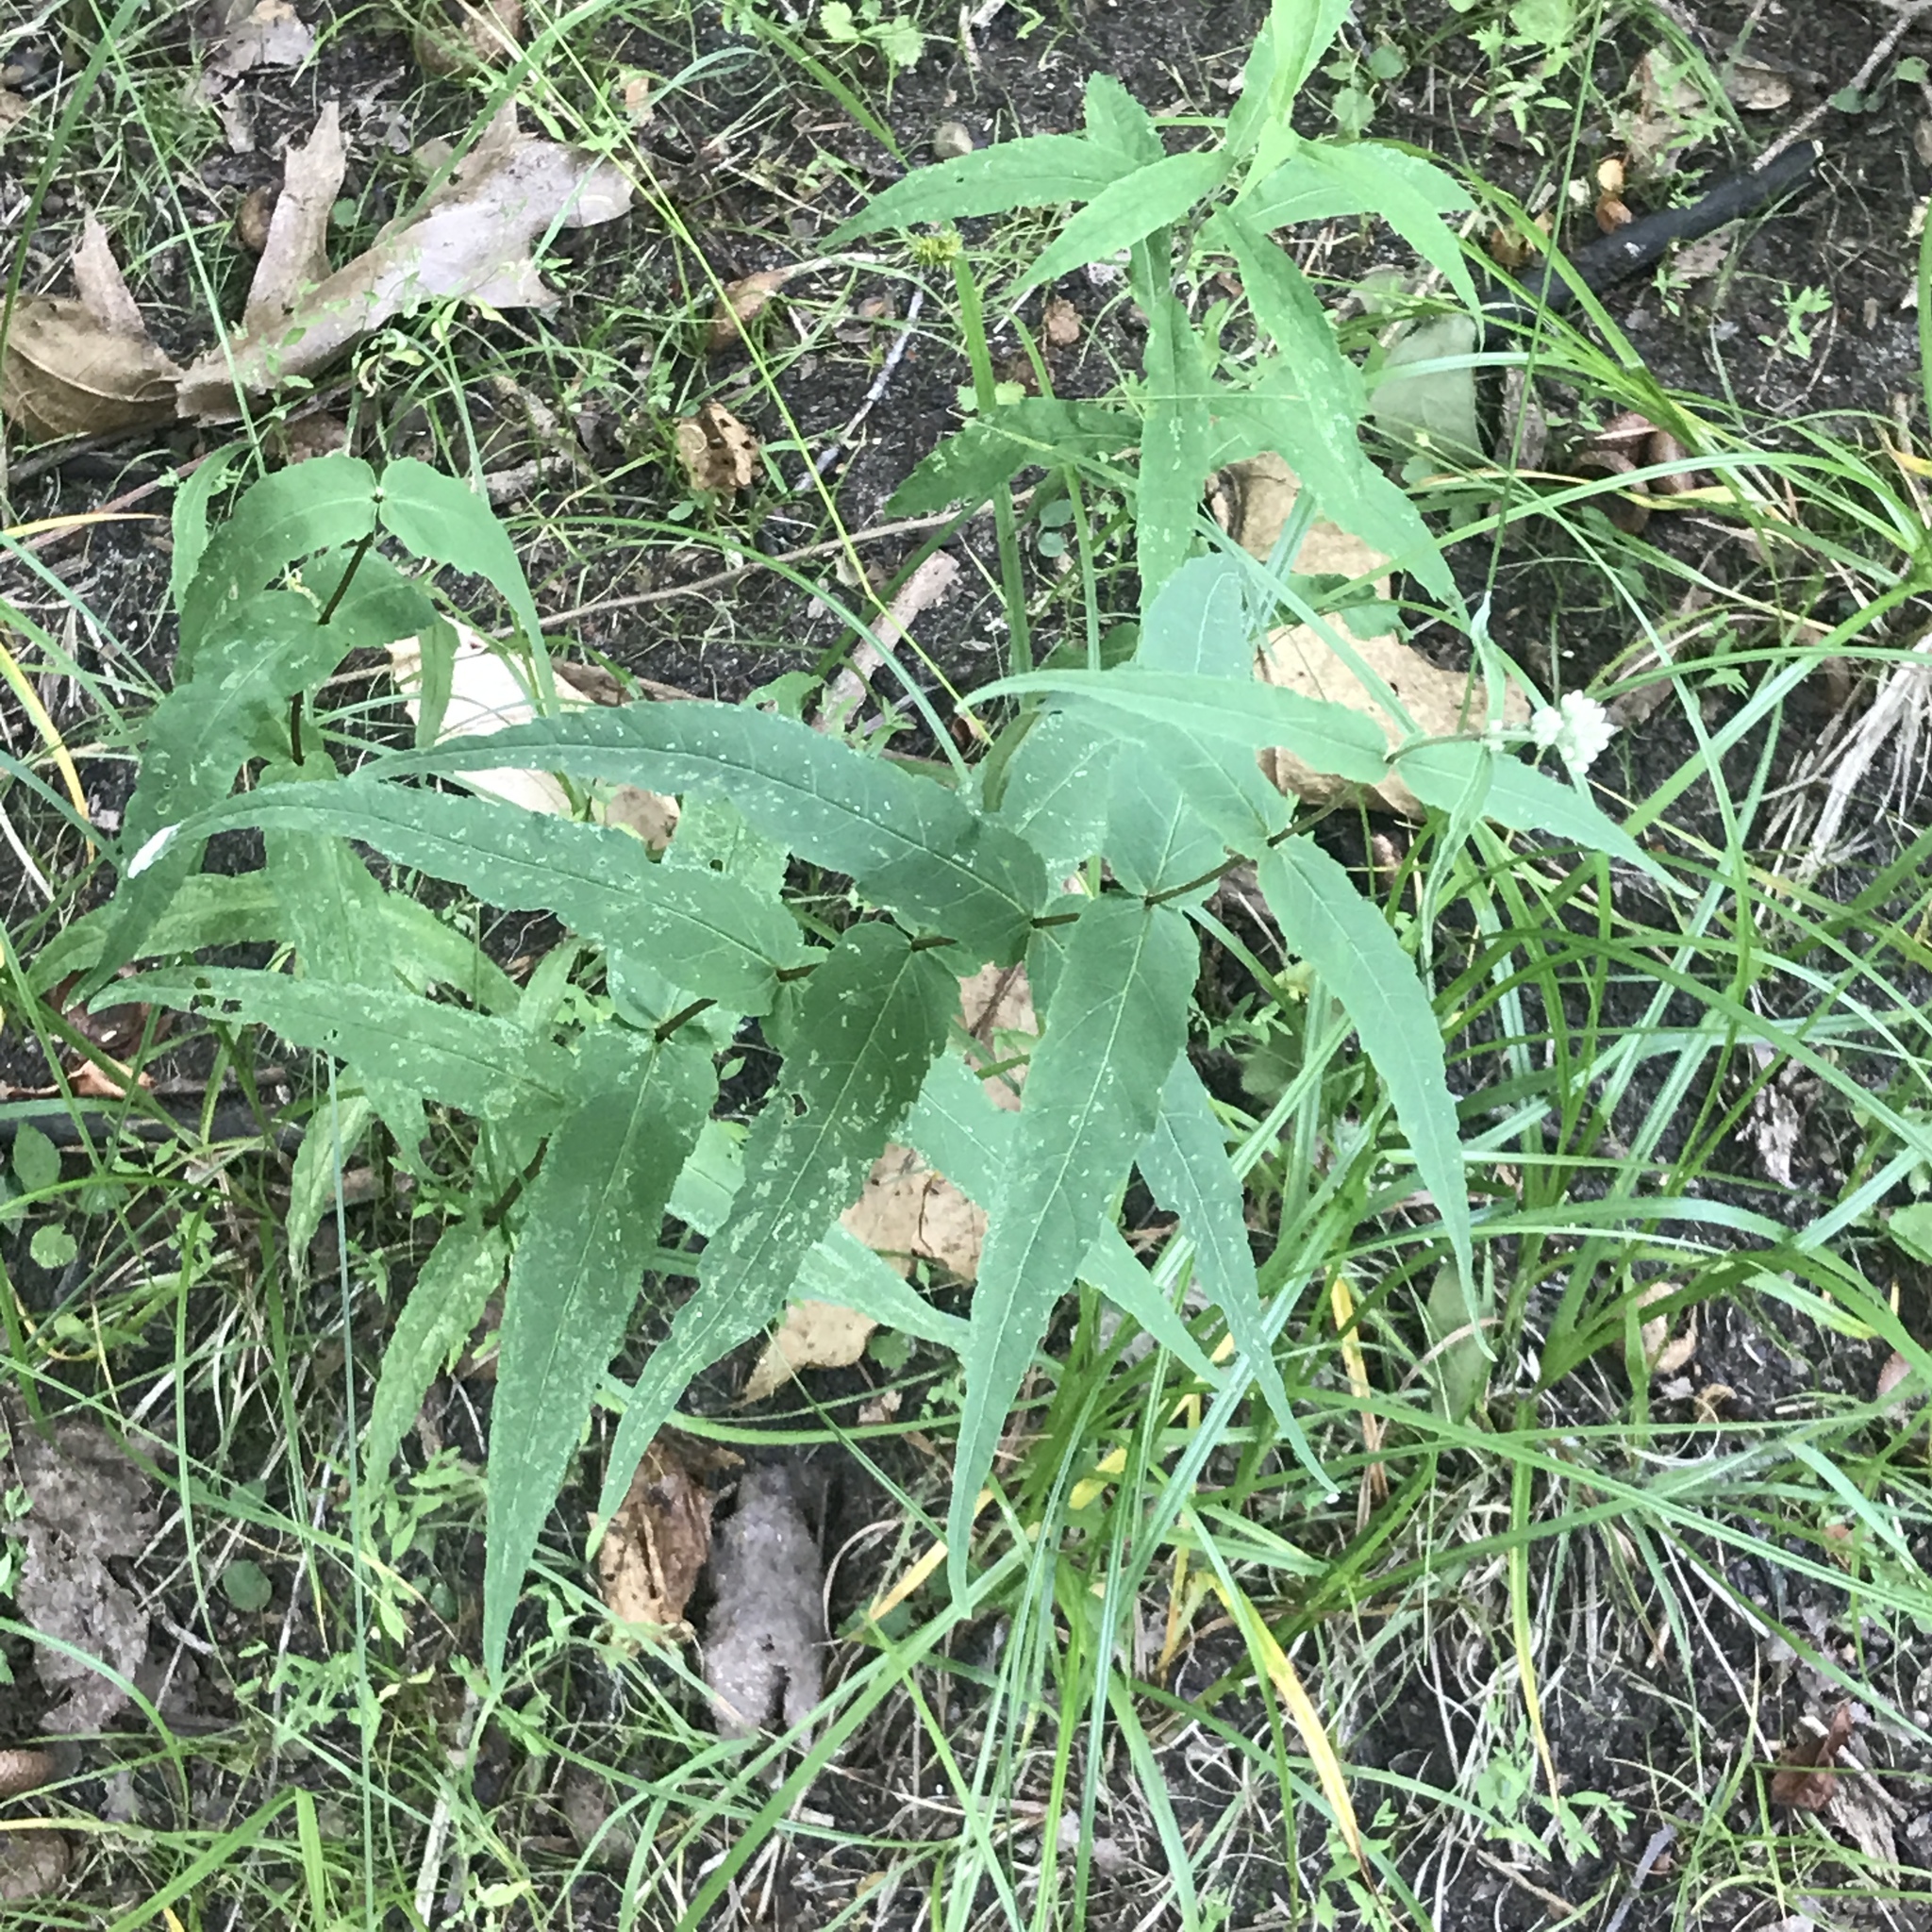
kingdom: Plantae
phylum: Tracheophyta
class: Magnoliopsida
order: Asterales
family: Asteraceae
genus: Eupatorium
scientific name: Eupatorium sessilifolium
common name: Upland boneset
